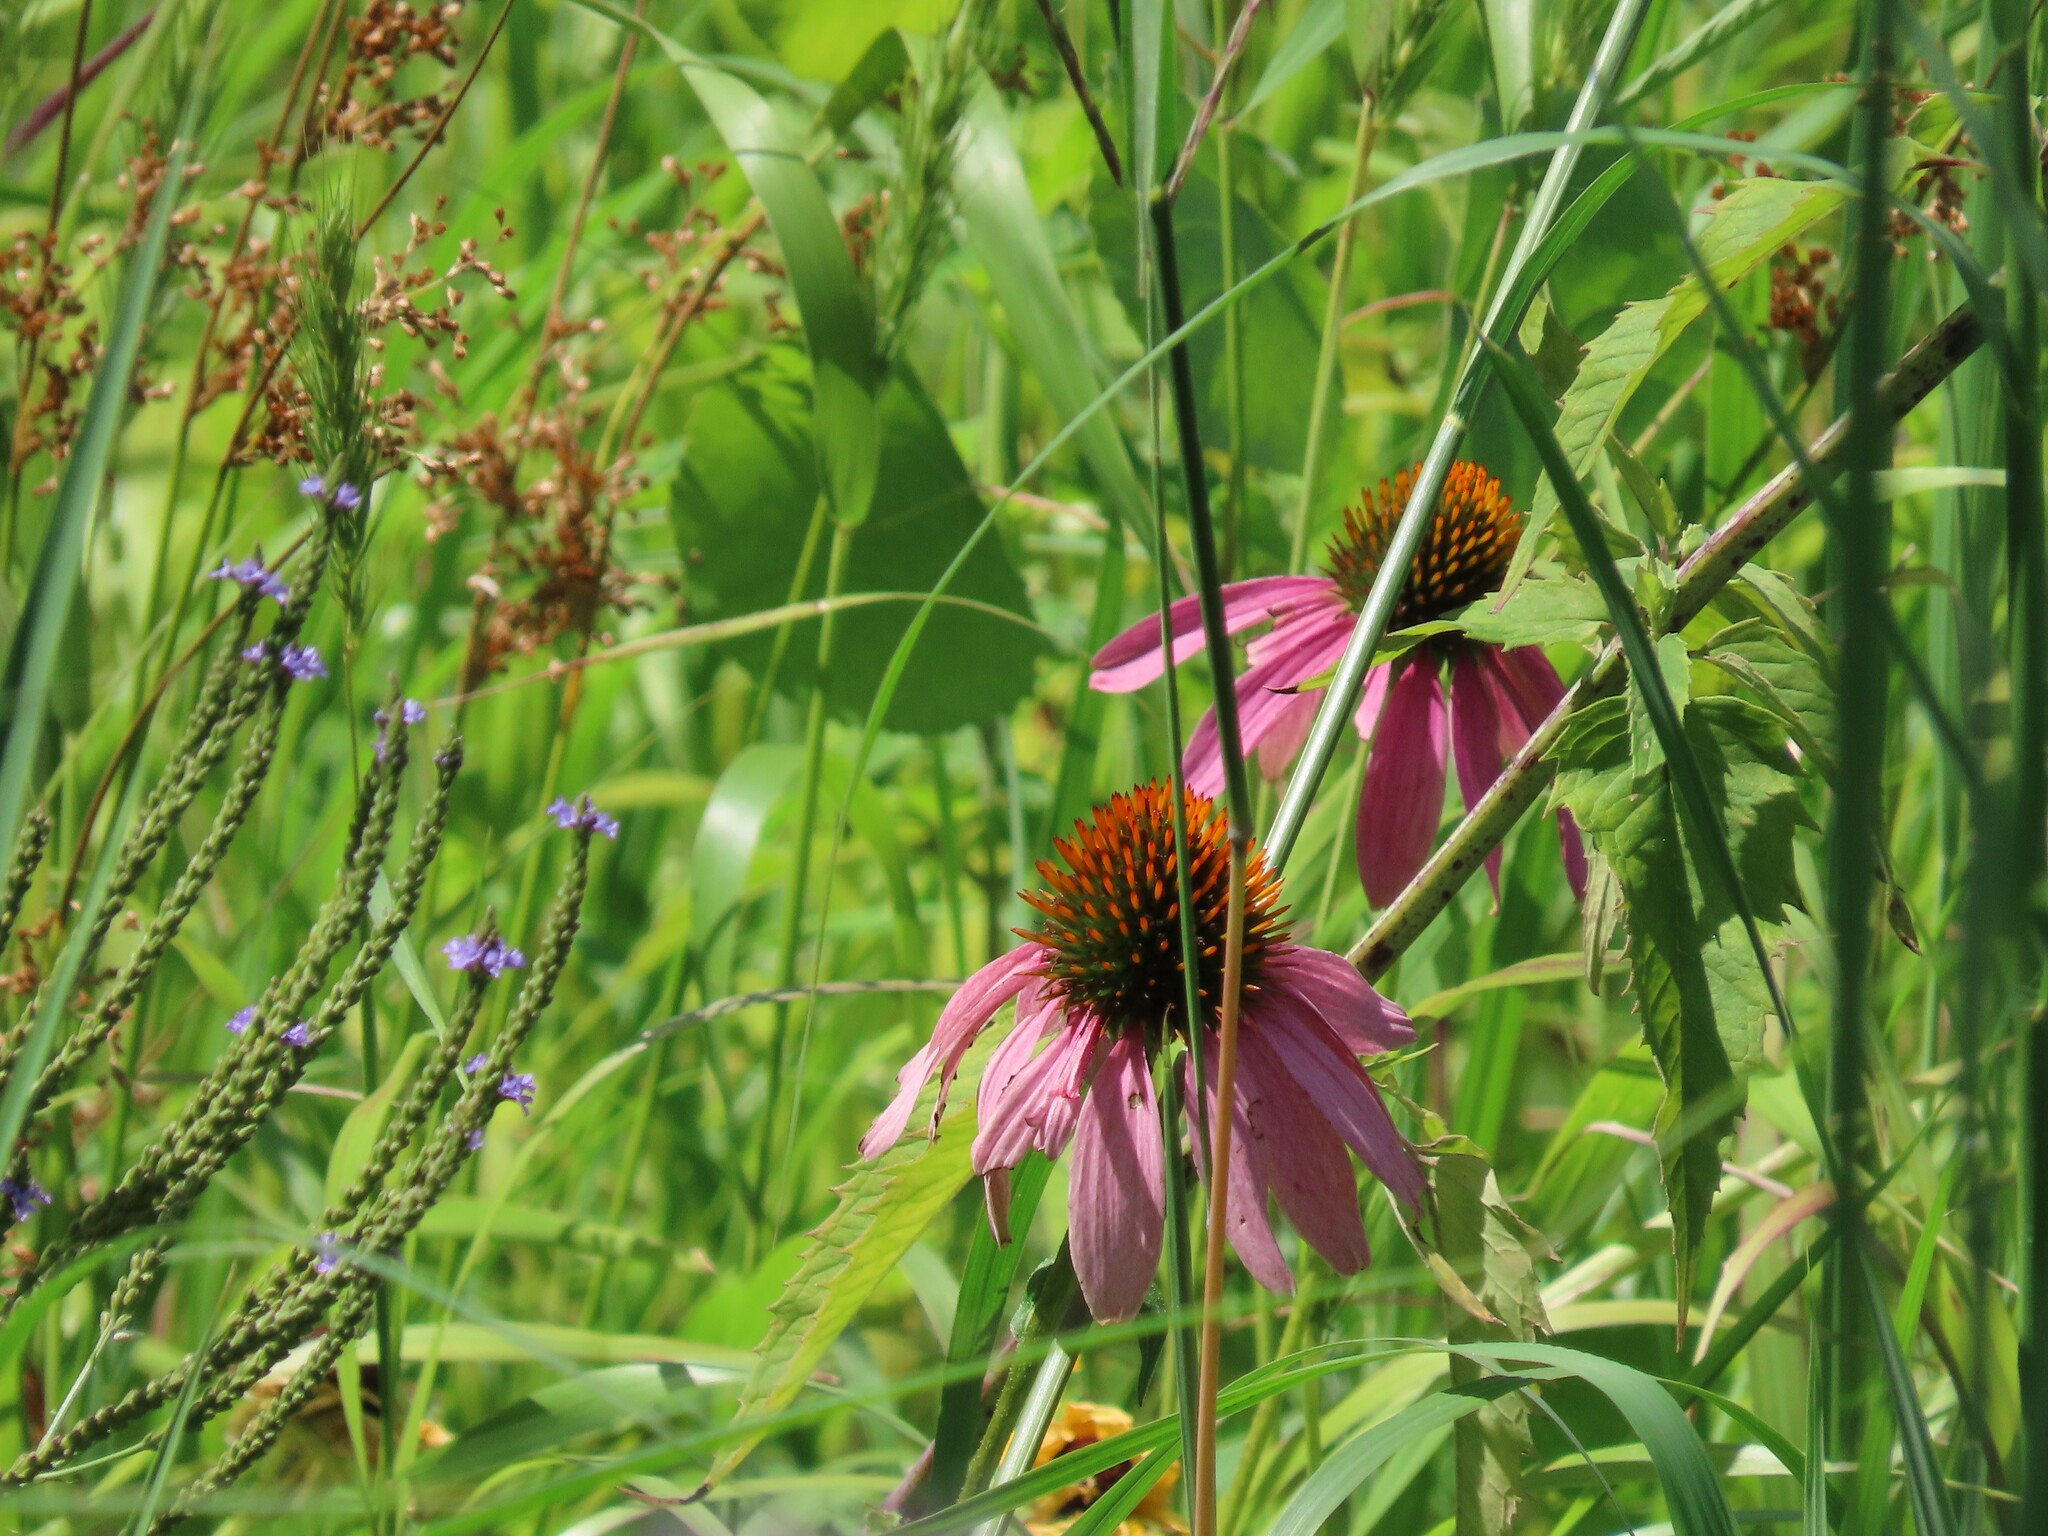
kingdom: Plantae
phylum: Tracheophyta
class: Magnoliopsida
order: Asterales
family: Asteraceae
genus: Echinacea
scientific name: Echinacea purpurea
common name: Broad-leaved purple coneflower
